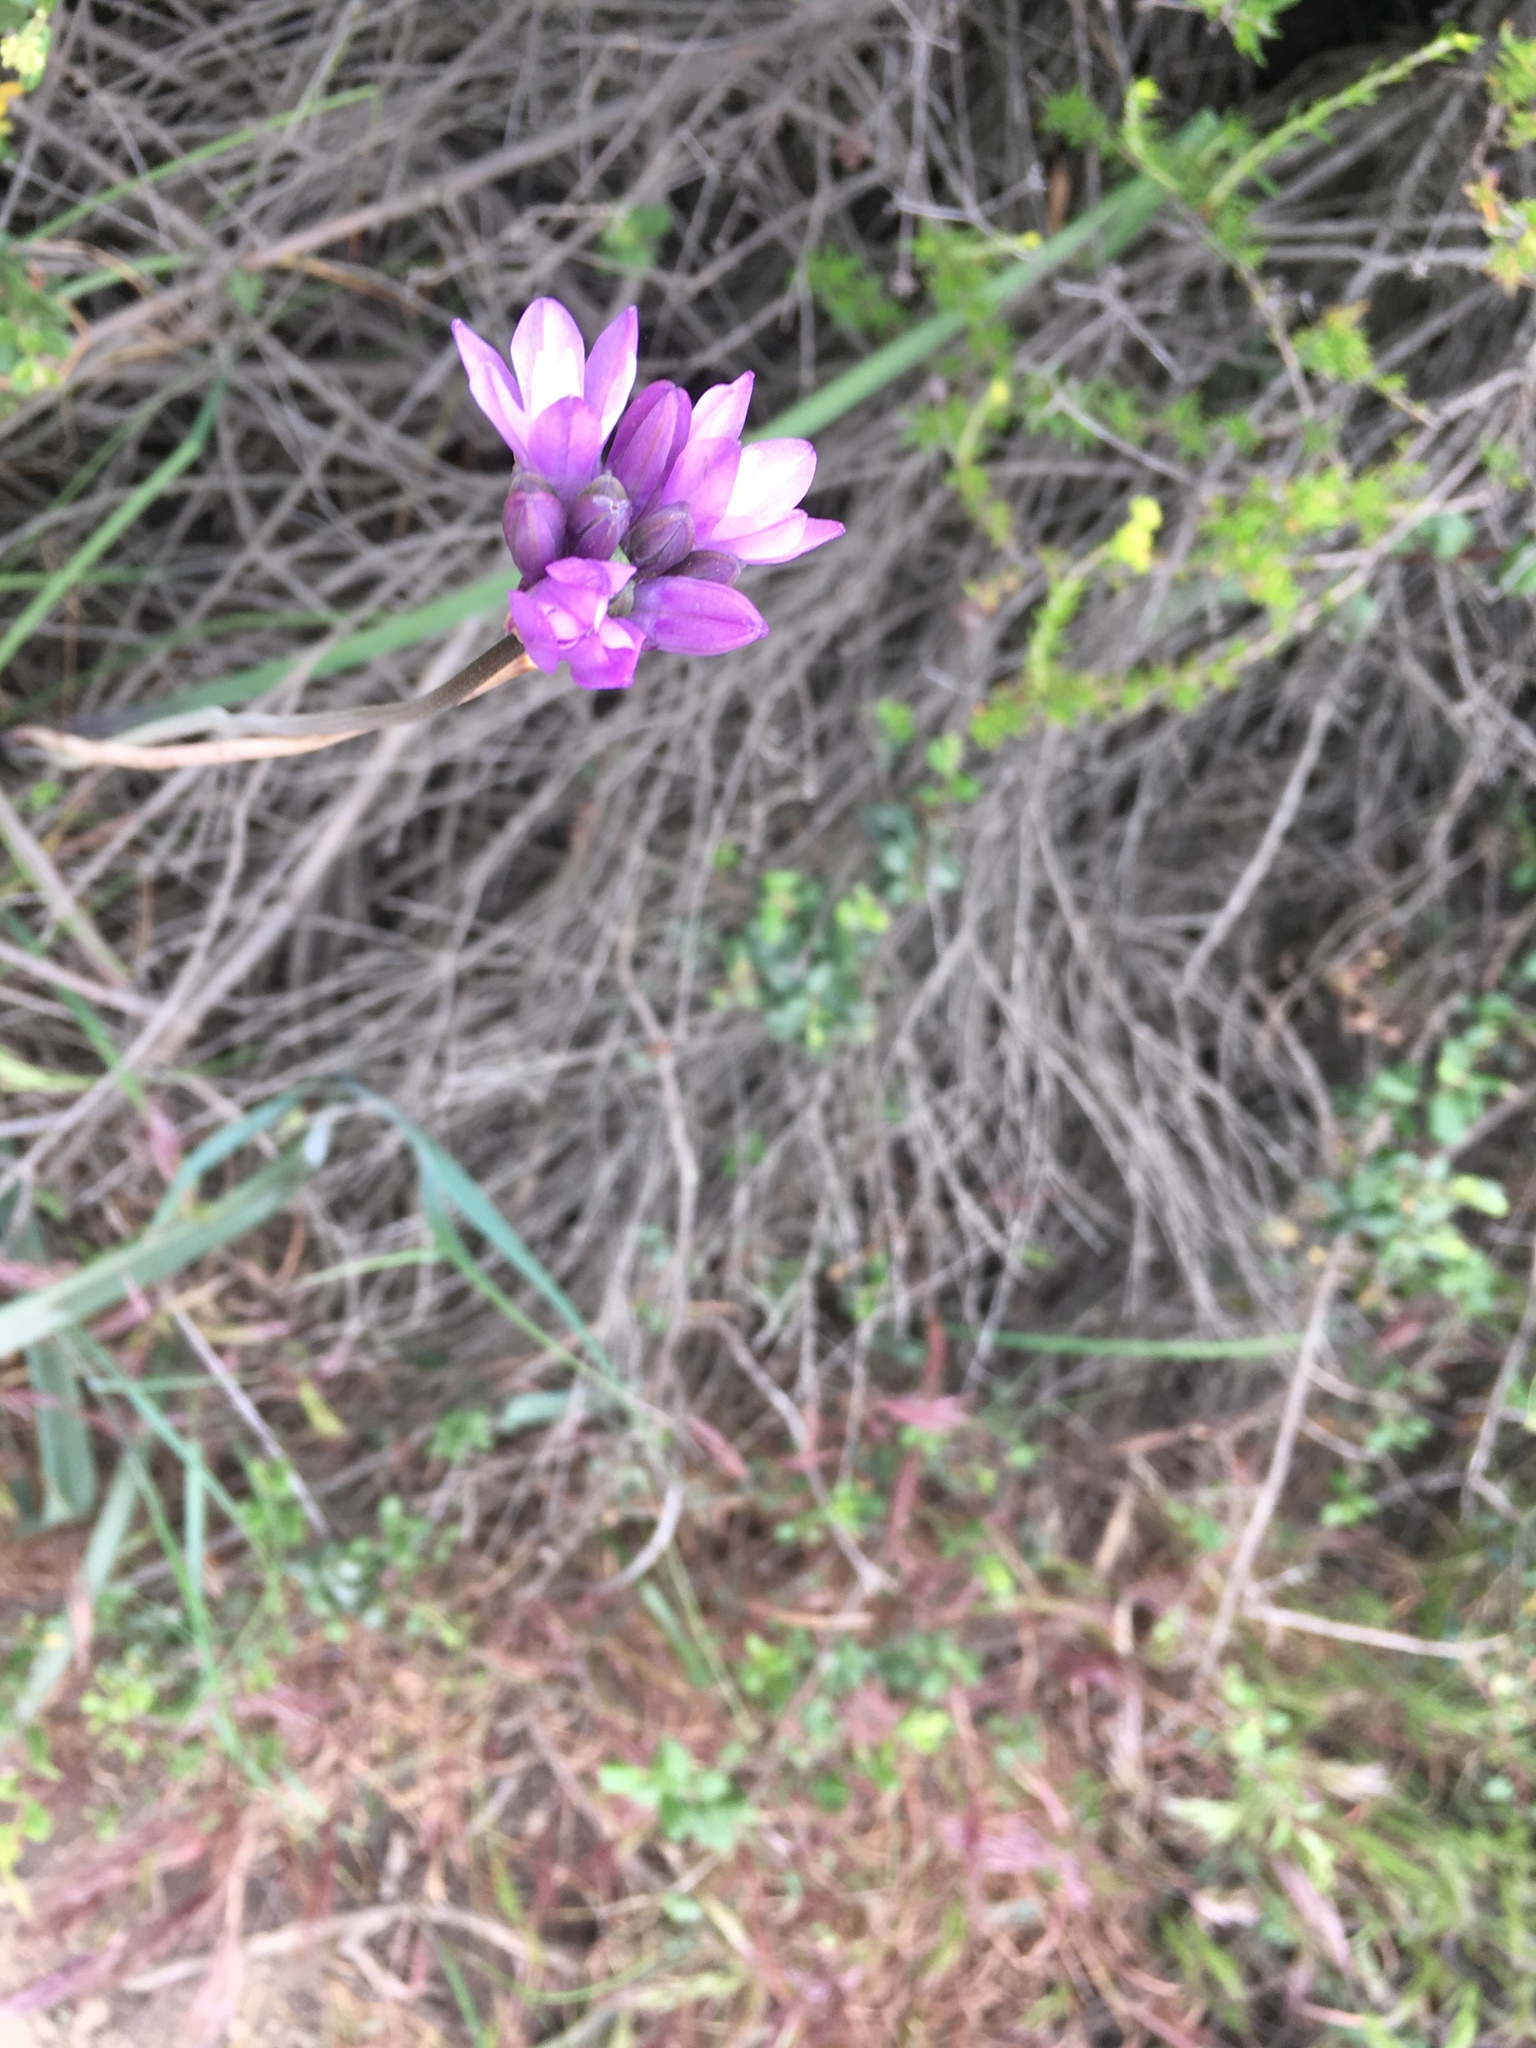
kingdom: Plantae
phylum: Tracheophyta
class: Liliopsida
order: Asparagales
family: Asparagaceae
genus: Dipterostemon
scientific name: Dipterostemon capitatus
